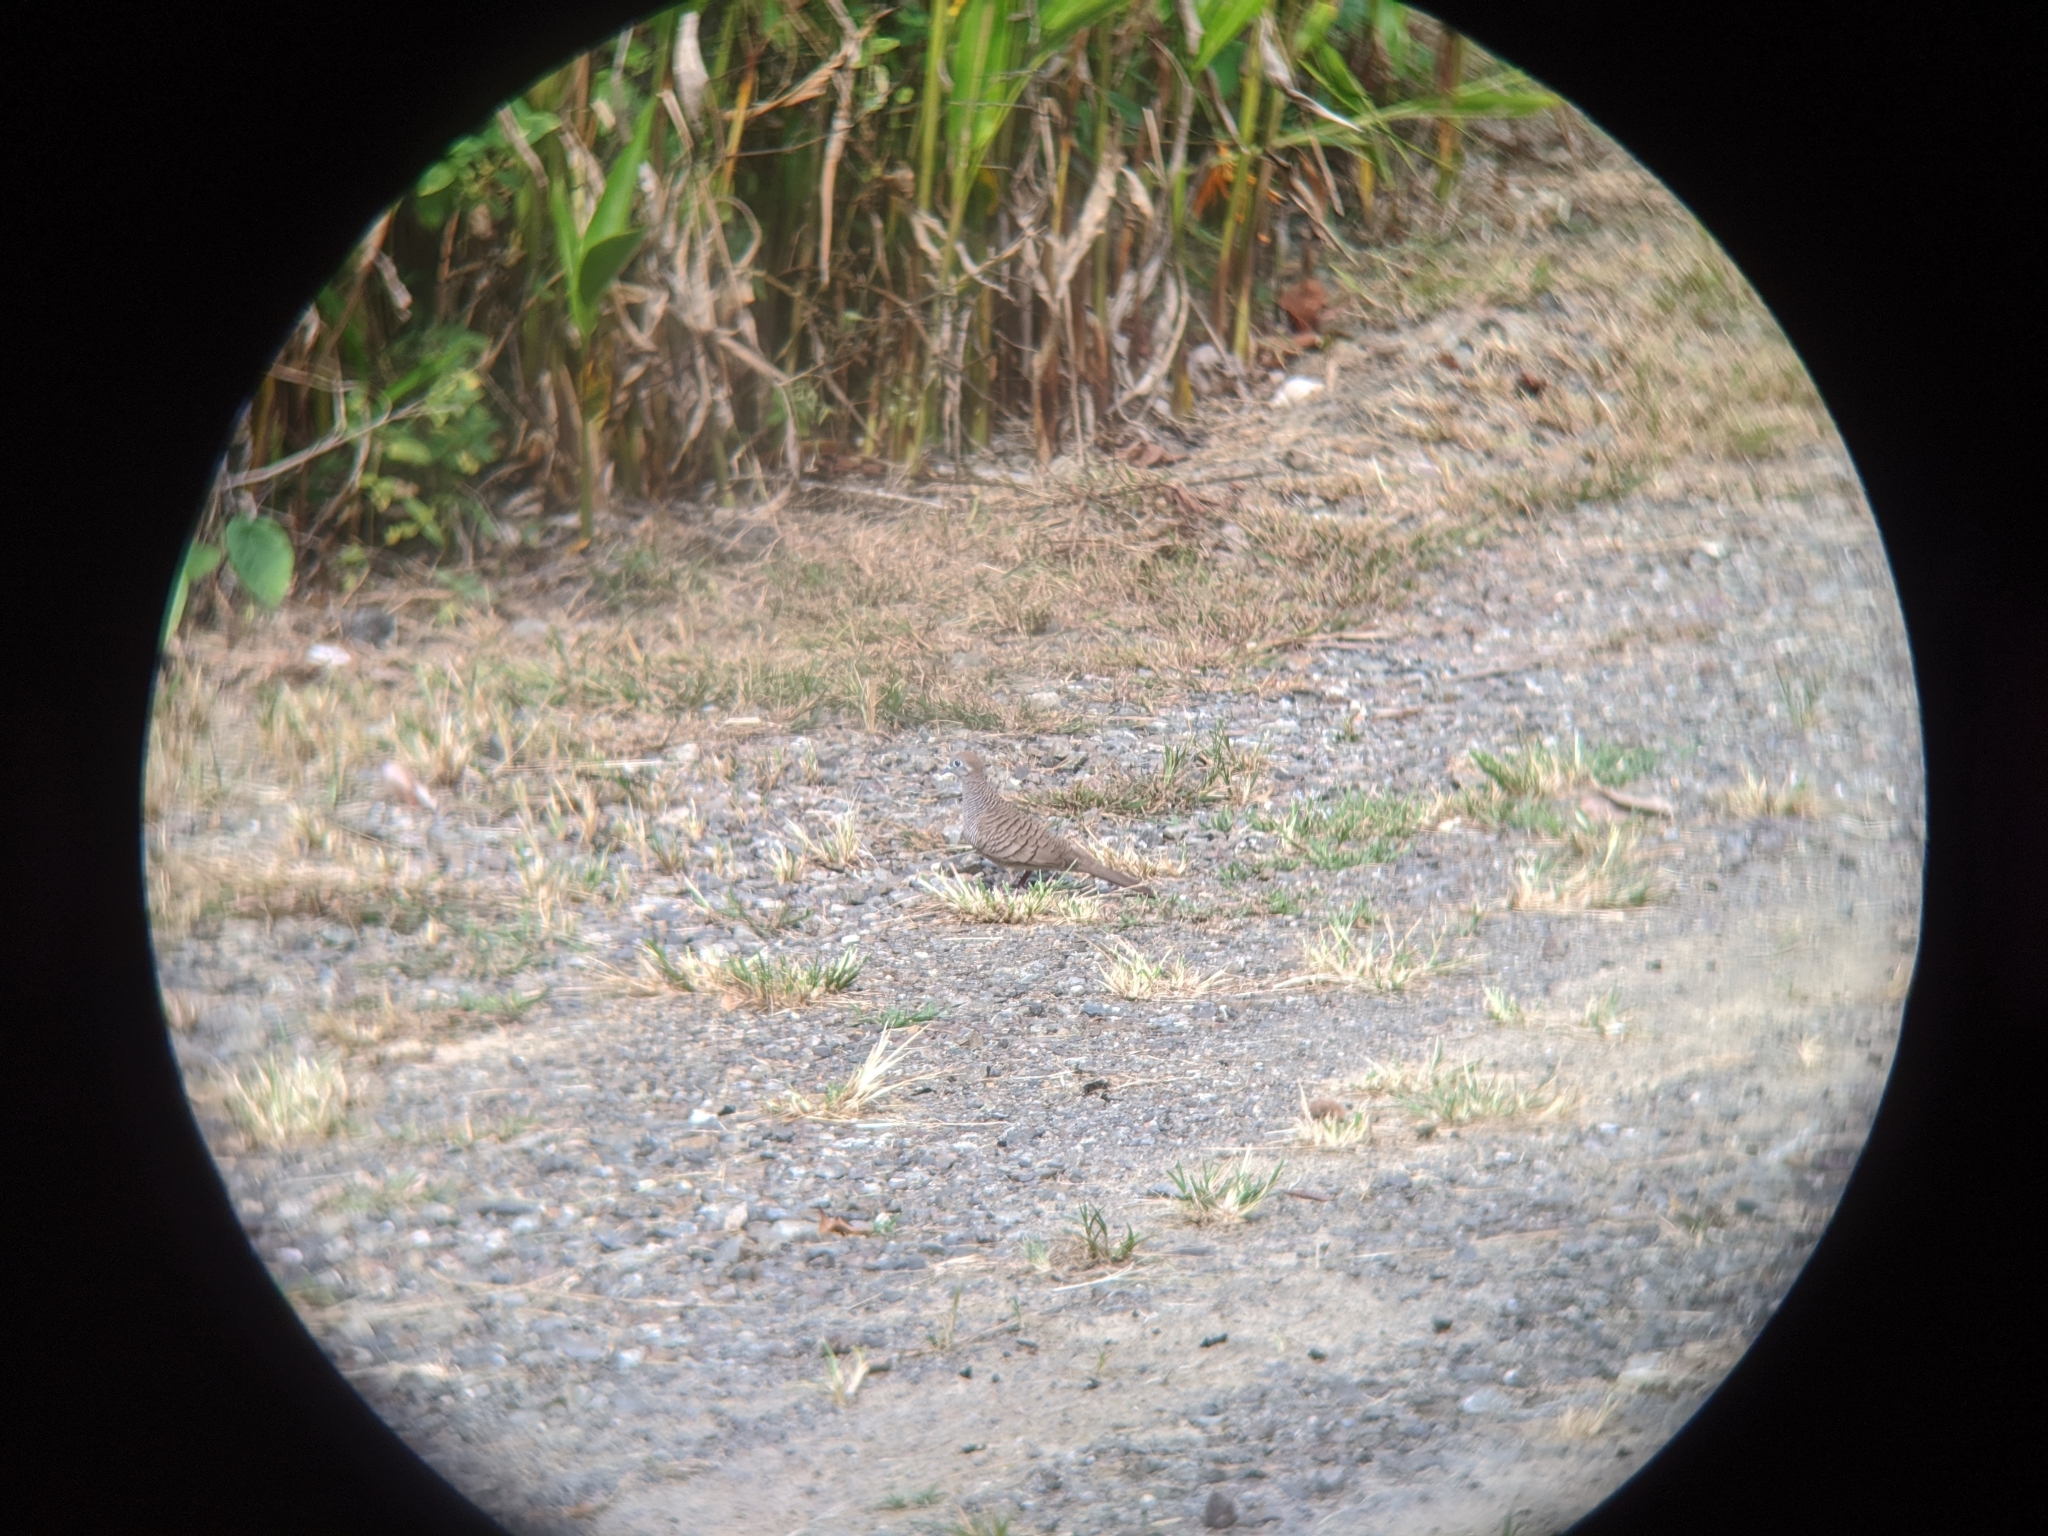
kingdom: Animalia
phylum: Chordata
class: Aves
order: Columbiformes
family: Columbidae
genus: Geopelia
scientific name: Geopelia striata
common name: Zebra dove
